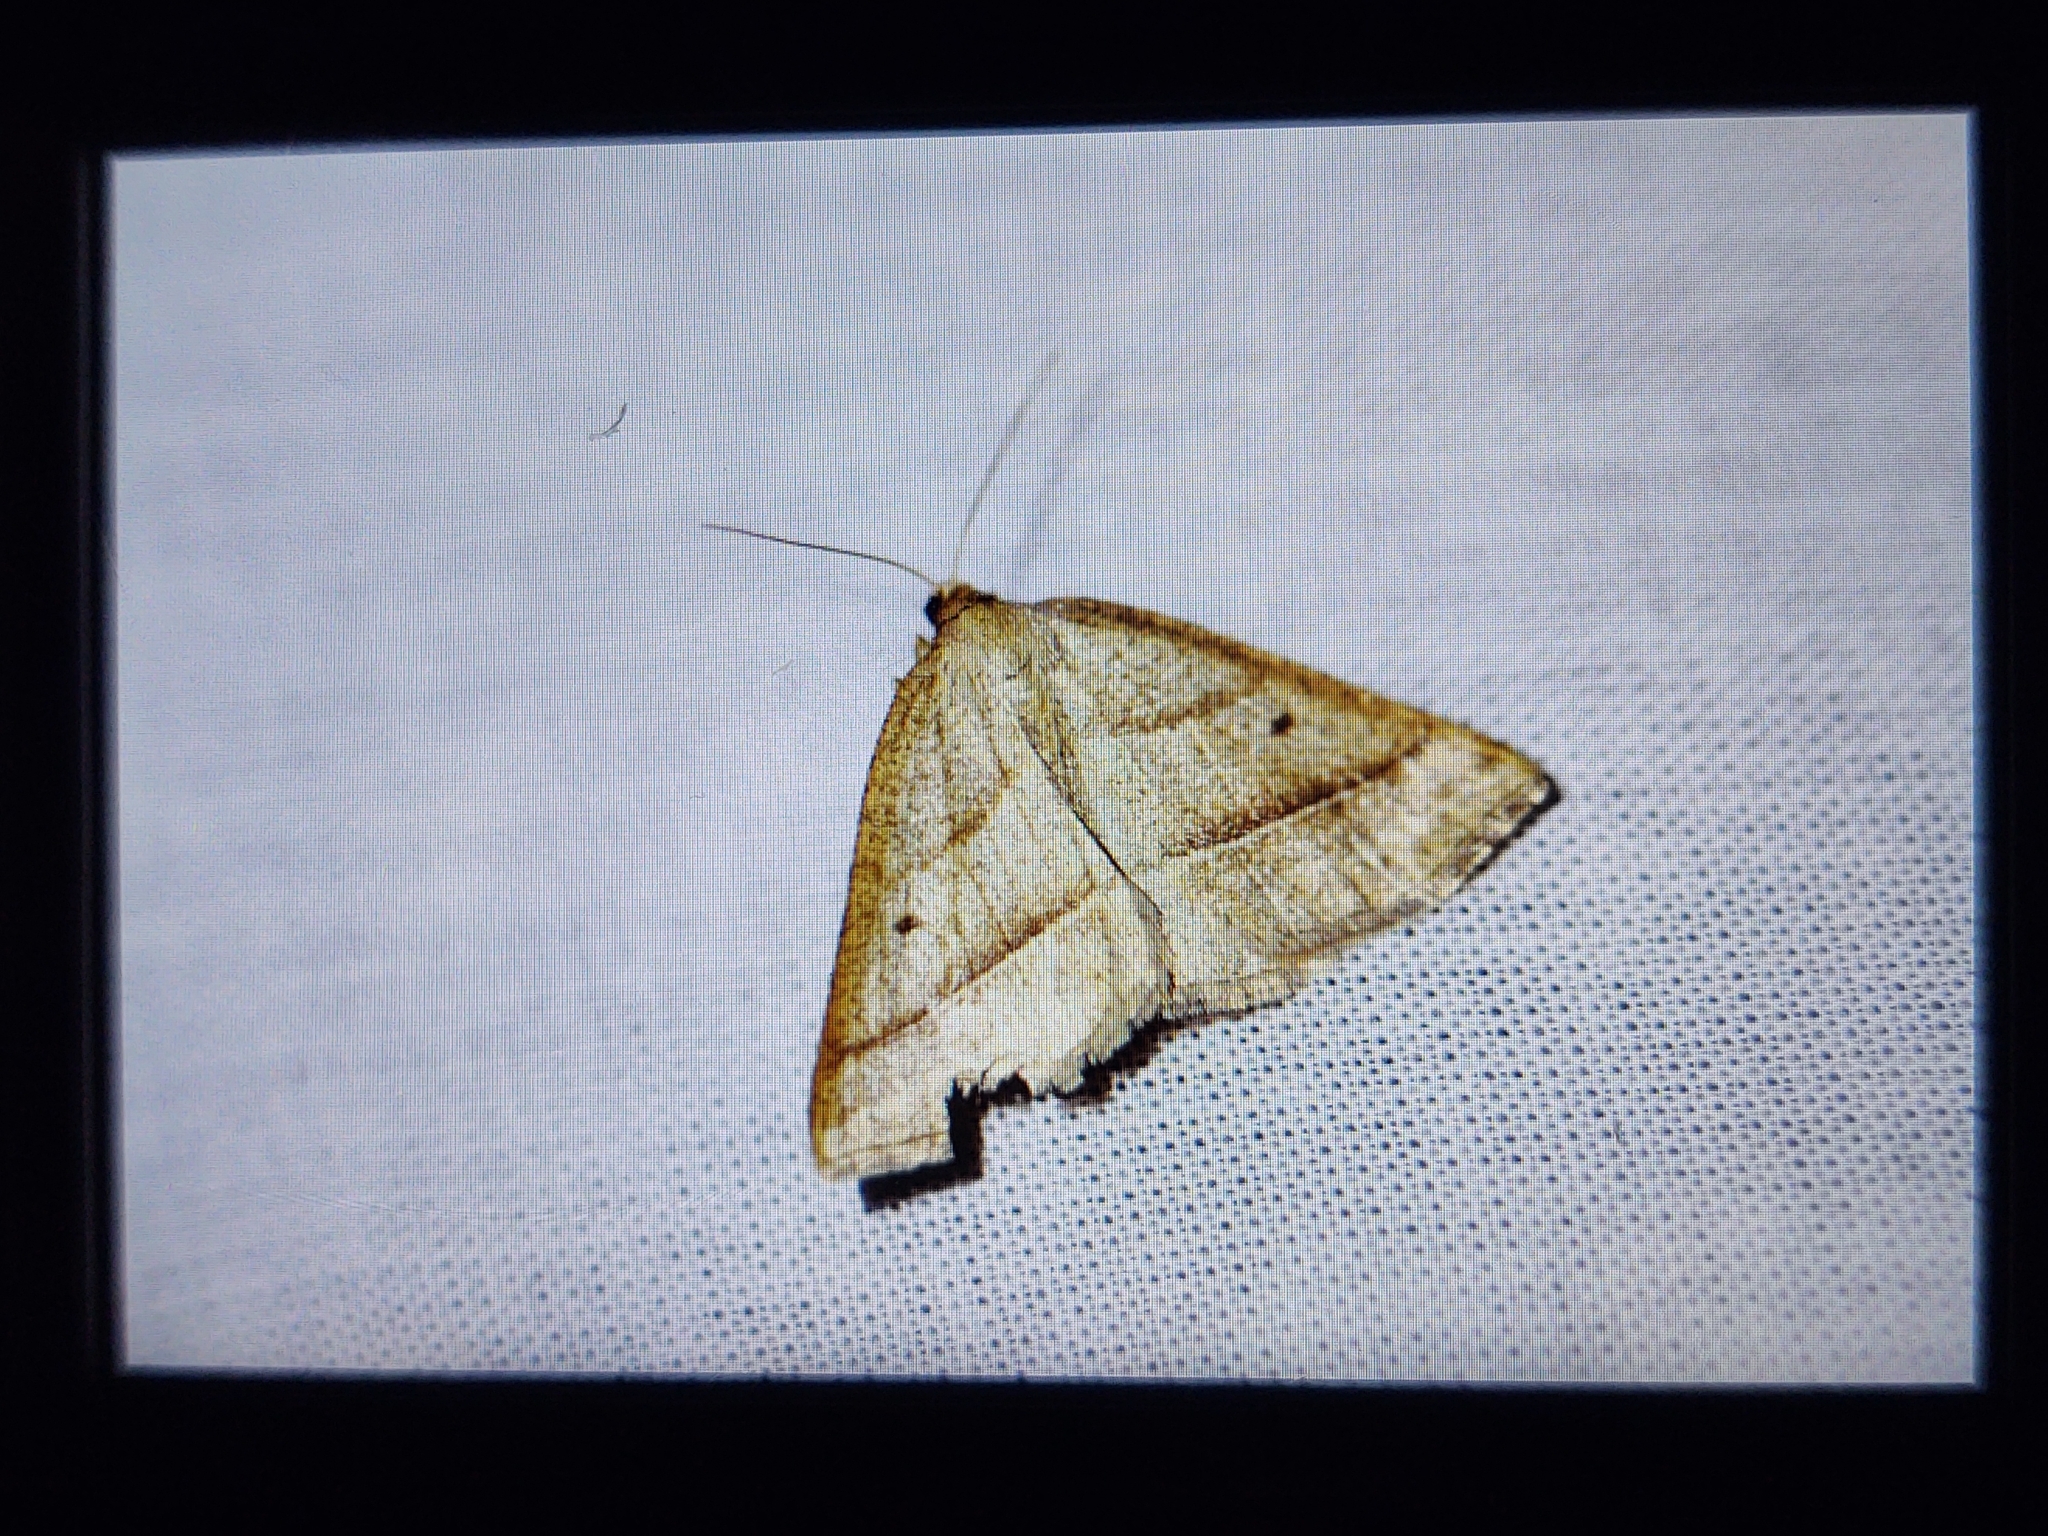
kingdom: Animalia
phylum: Arthropoda
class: Insecta
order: Lepidoptera
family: Pterophoridae
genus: Pterophorus
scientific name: Pterophorus Petrophora chlorosata
